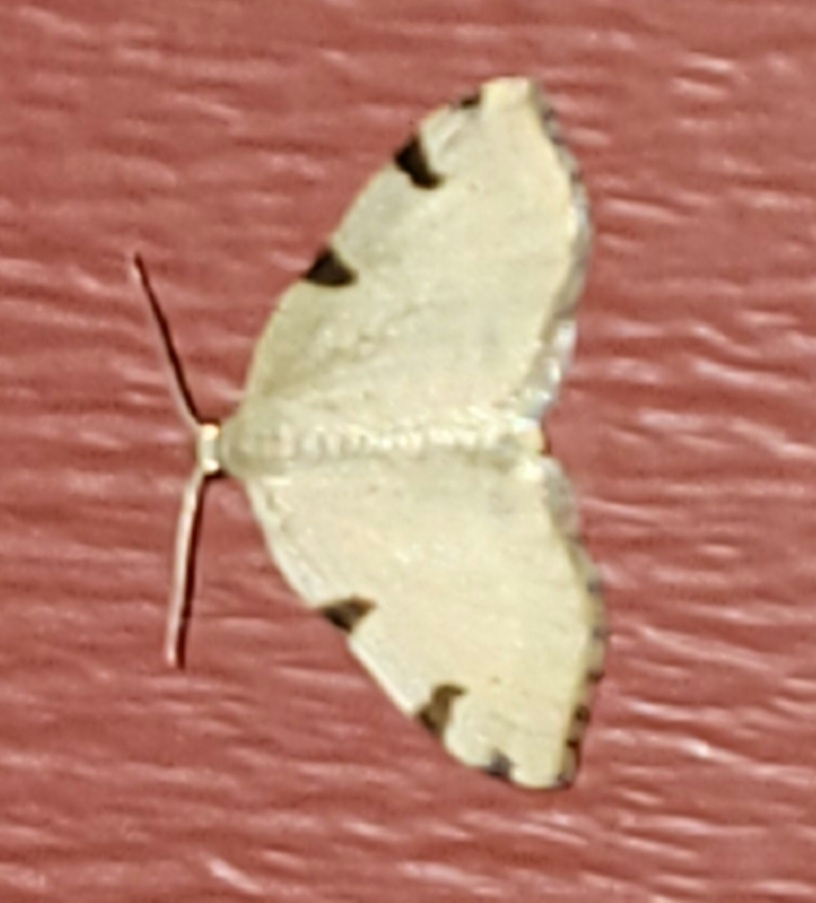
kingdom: Animalia
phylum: Arthropoda
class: Insecta
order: Lepidoptera
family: Geometridae
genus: Heterophleps
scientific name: Heterophleps triguttaria
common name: Three-spotted fillip
